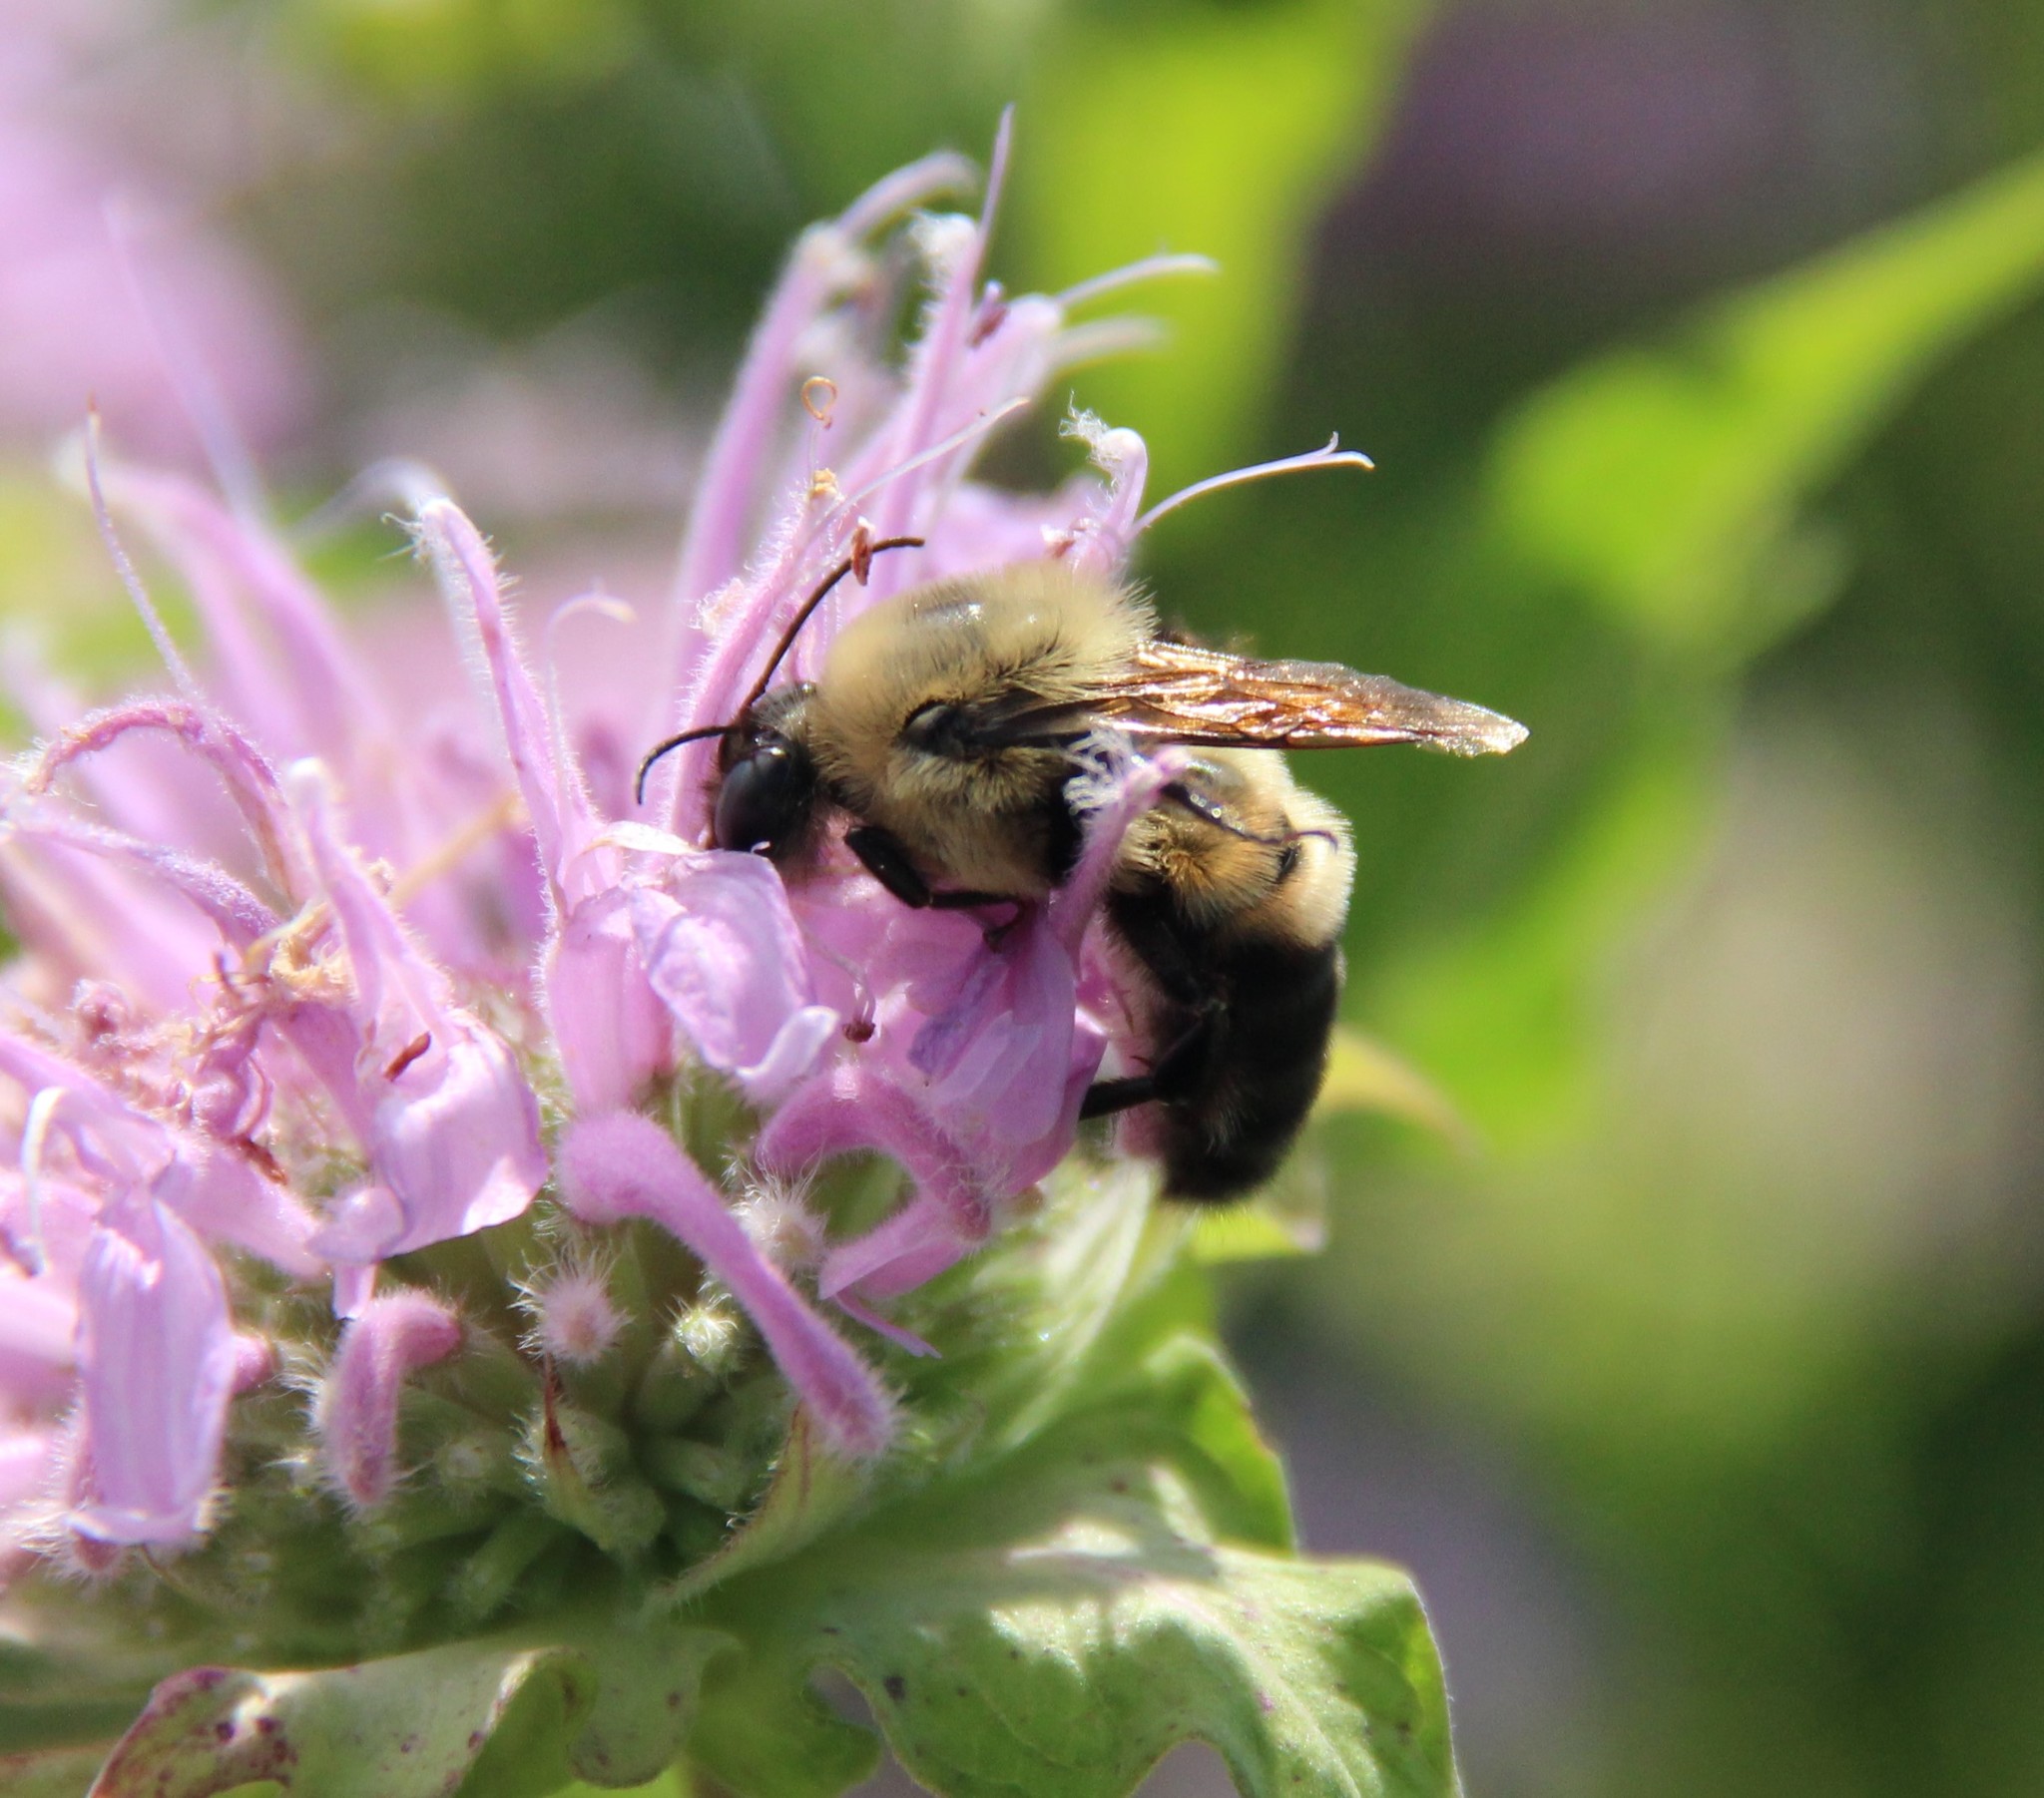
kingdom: Animalia
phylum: Arthropoda
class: Insecta
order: Hymenoptera
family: Apidae
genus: Bombus
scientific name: Bombus griseocollis
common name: Brown-belted bumble bee
